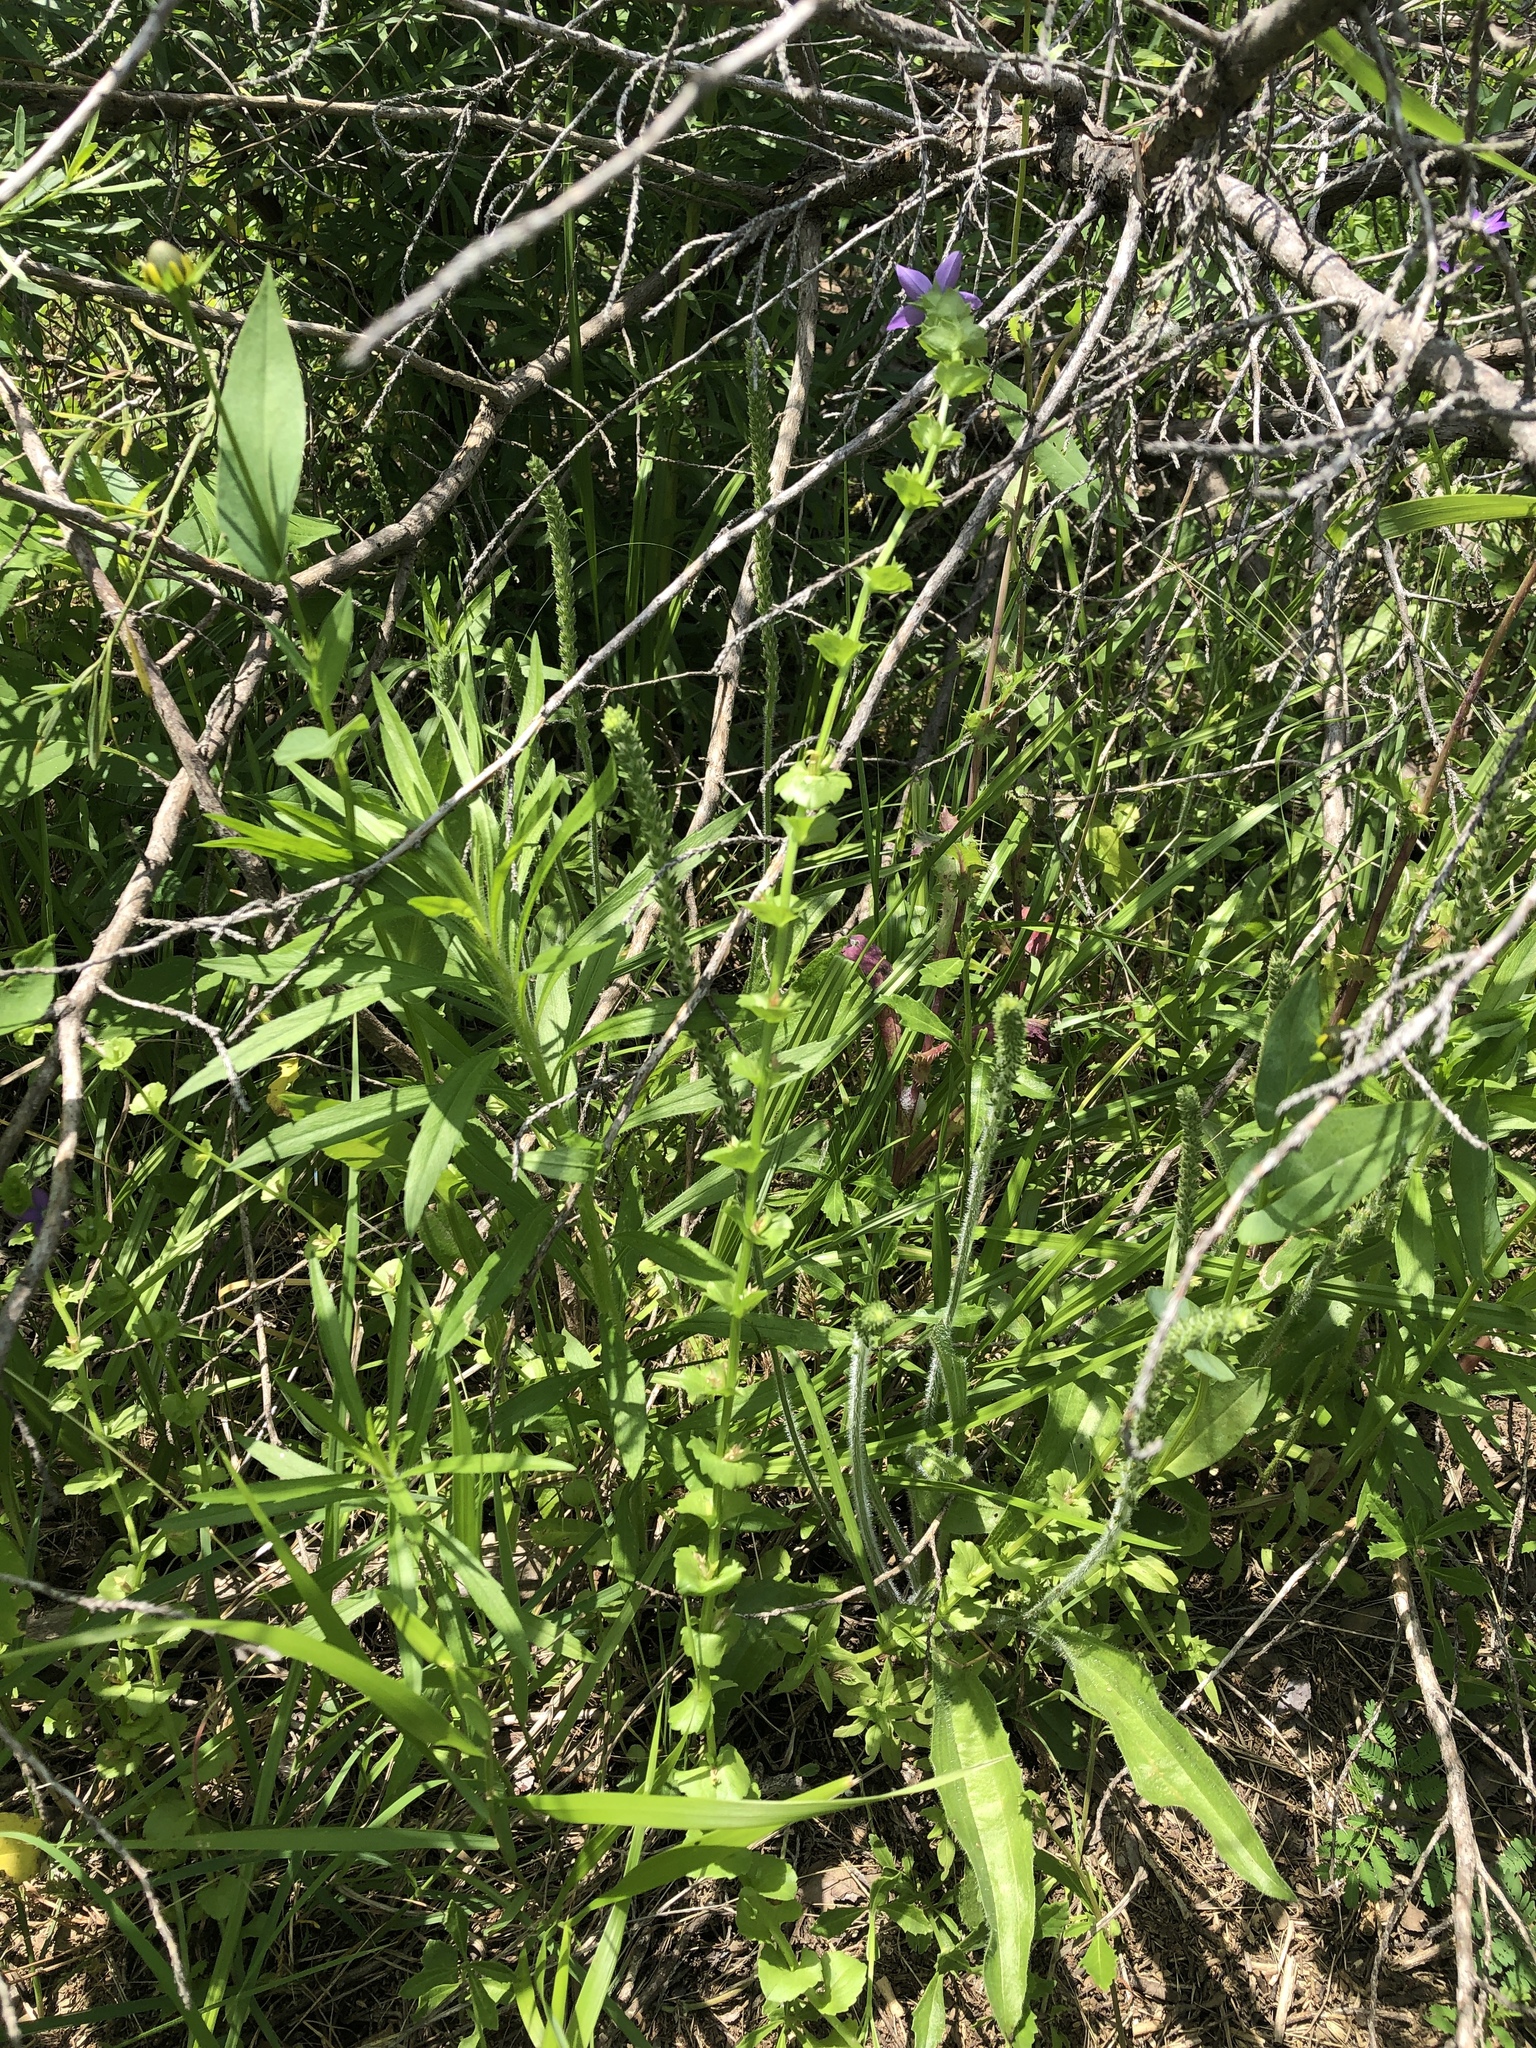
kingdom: Plantae
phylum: Tracheophyta
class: Magnoliopsida
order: Asterales
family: Campanulaceae
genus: Triodanis
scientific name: Triodanis perfoliata
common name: Clasping venus' looking-glass
